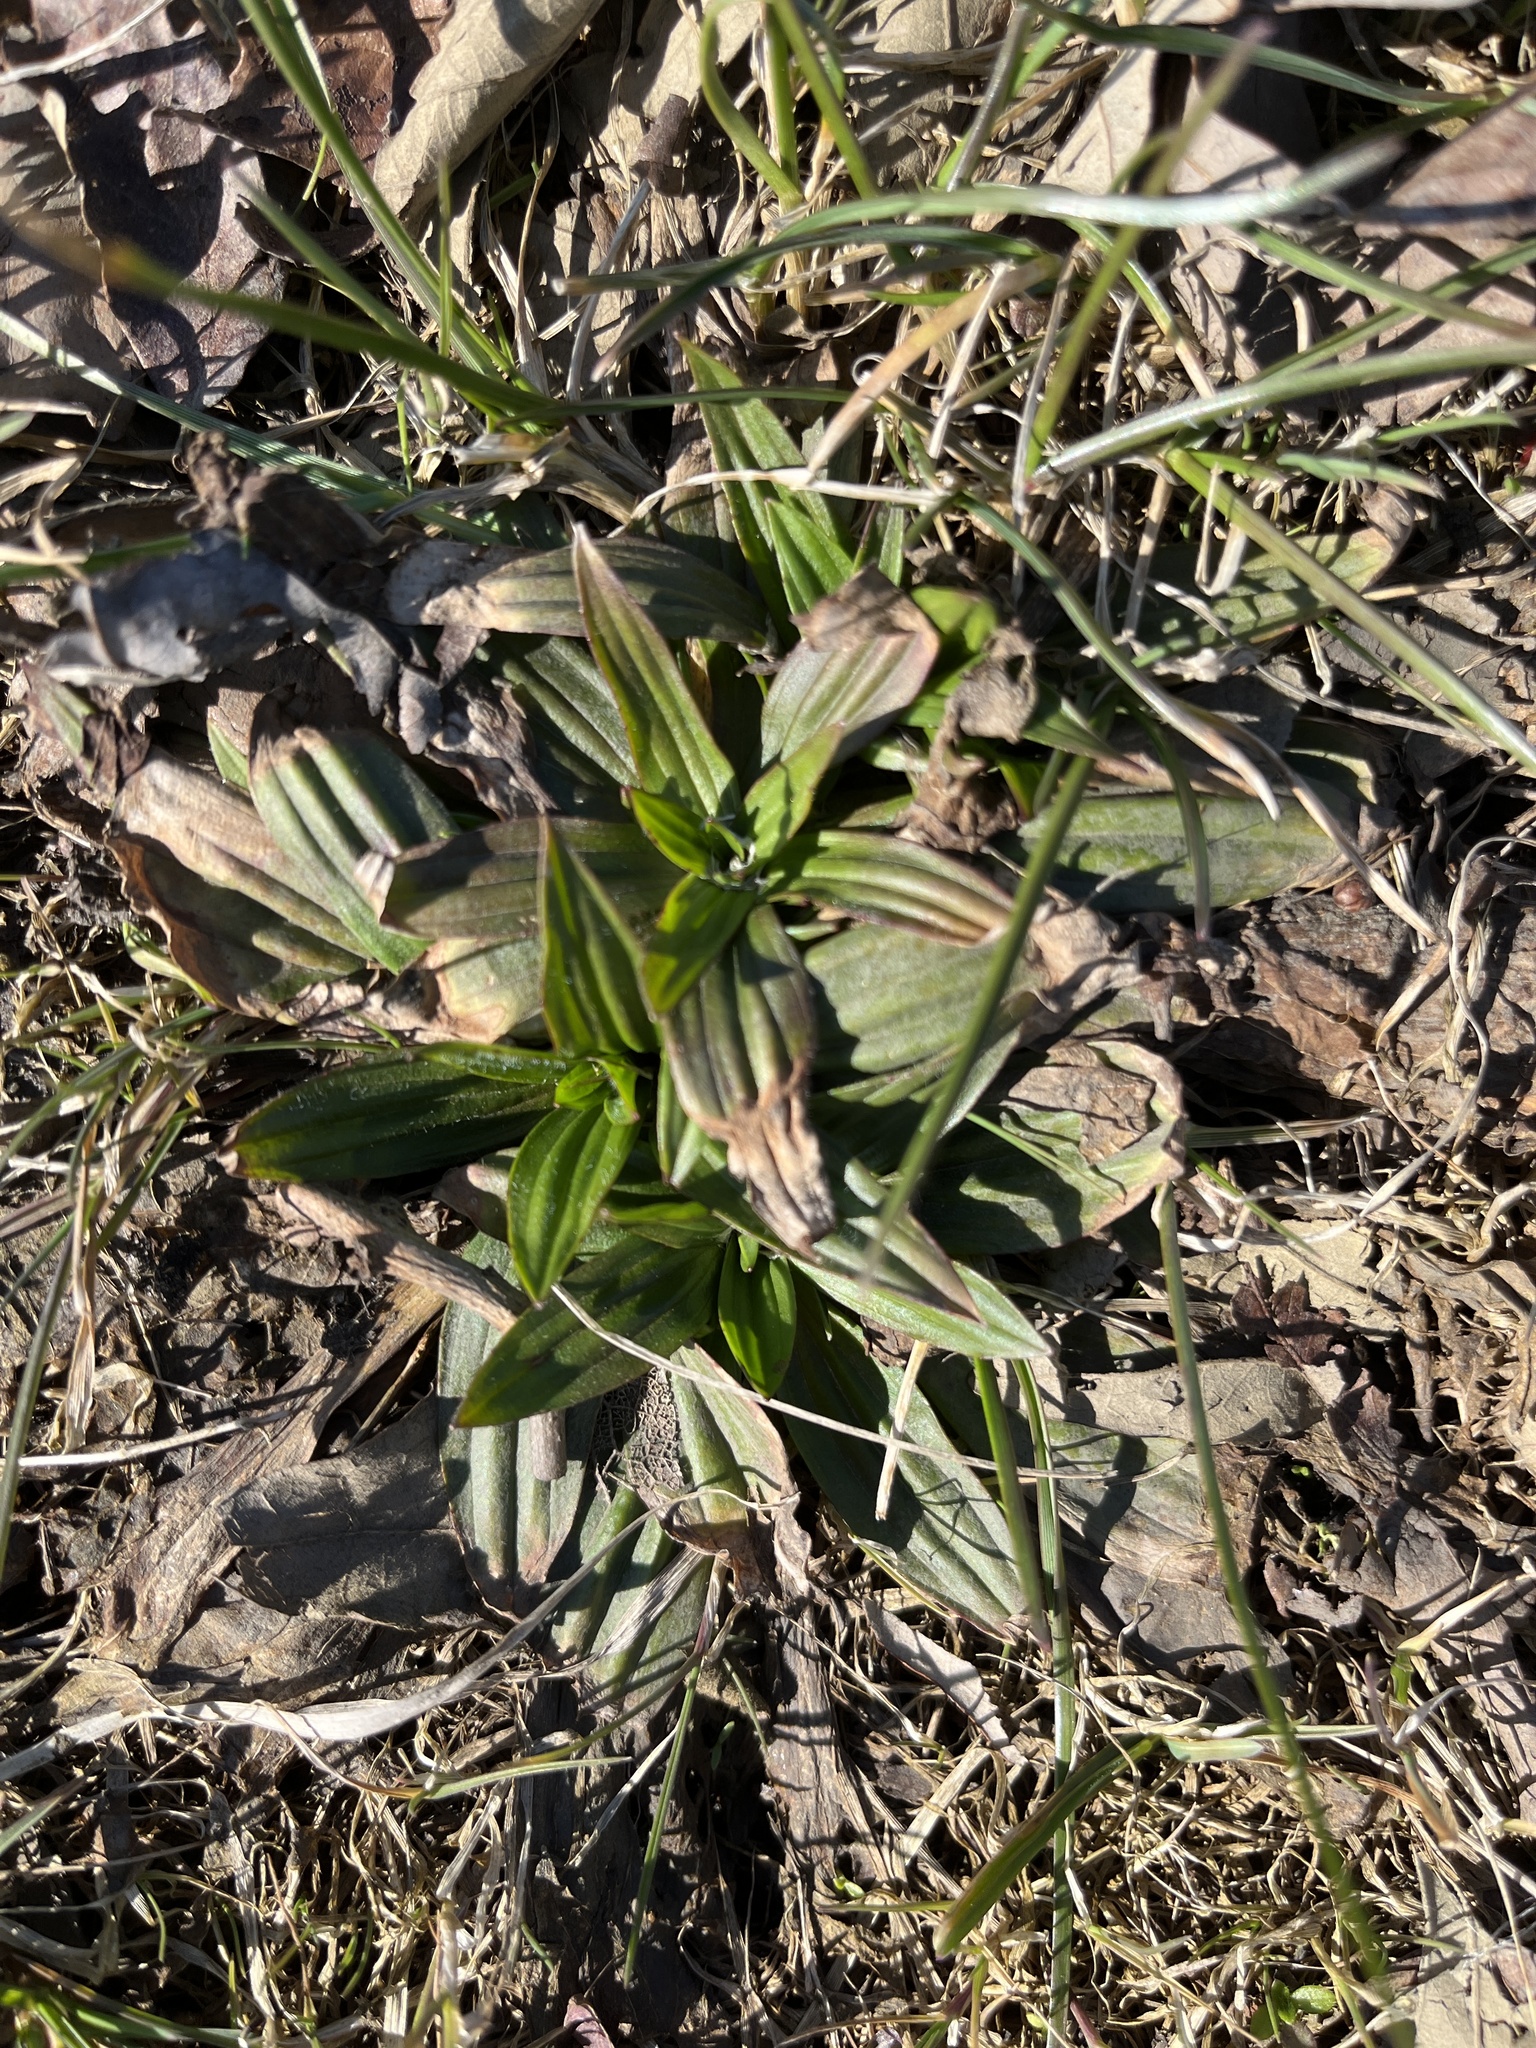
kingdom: Plantae
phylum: Tracheophyta
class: Magnoliopsida
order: Lamiales
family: Plantaginaceae
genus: Plantago
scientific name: Plantago lanceolata
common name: Ribwort plantain
